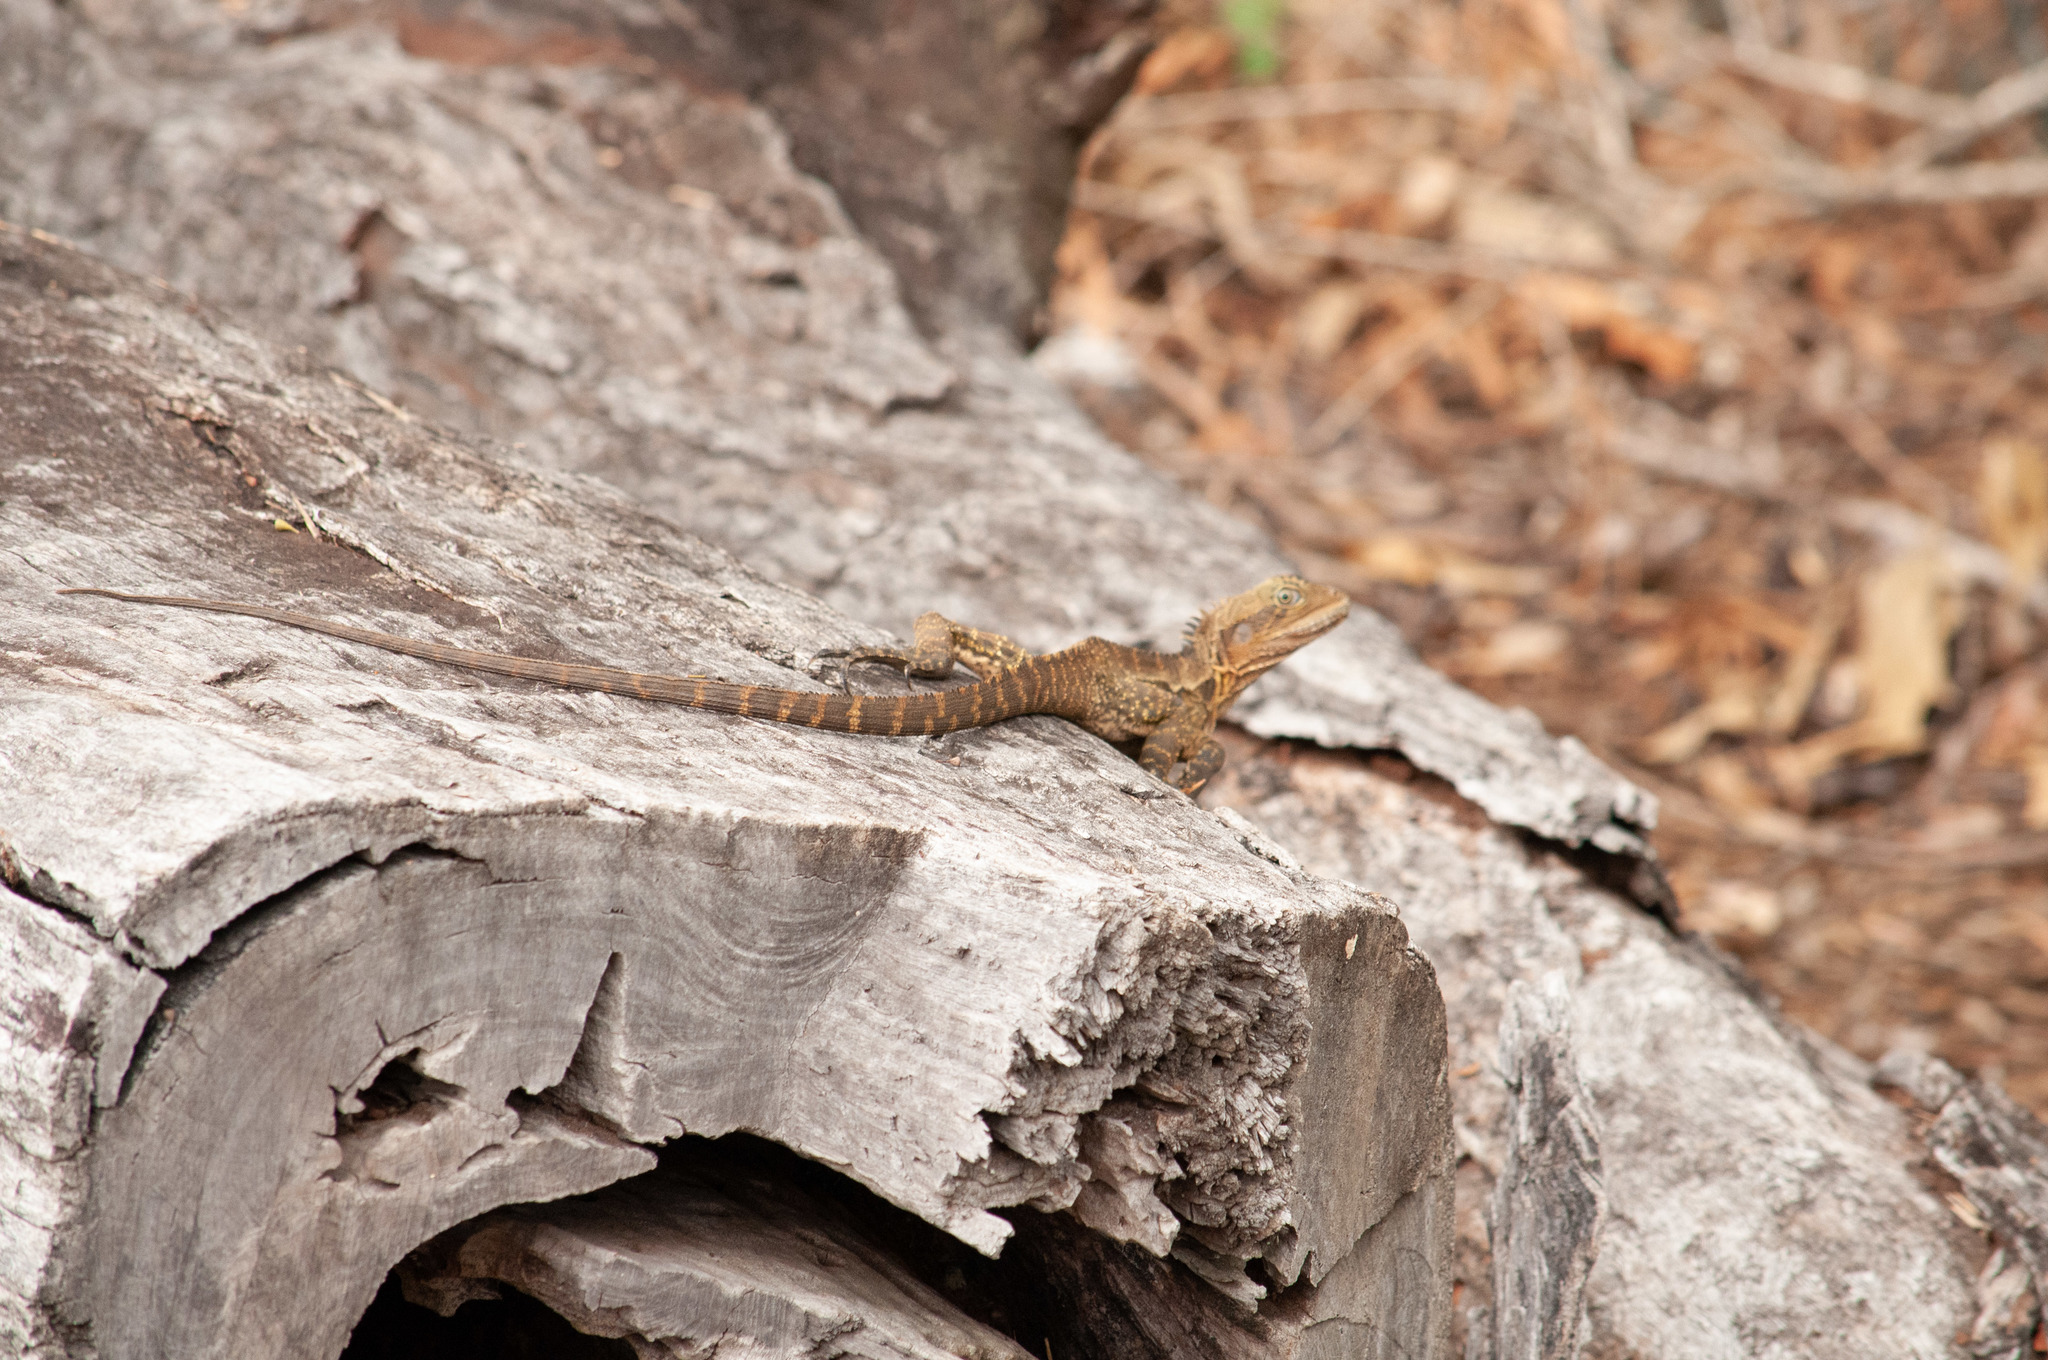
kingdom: Animalia
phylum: Chordata
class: Squamata
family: Agamidae
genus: Intellagama
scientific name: Intellagama lesueurii
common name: Eastern water dragon
